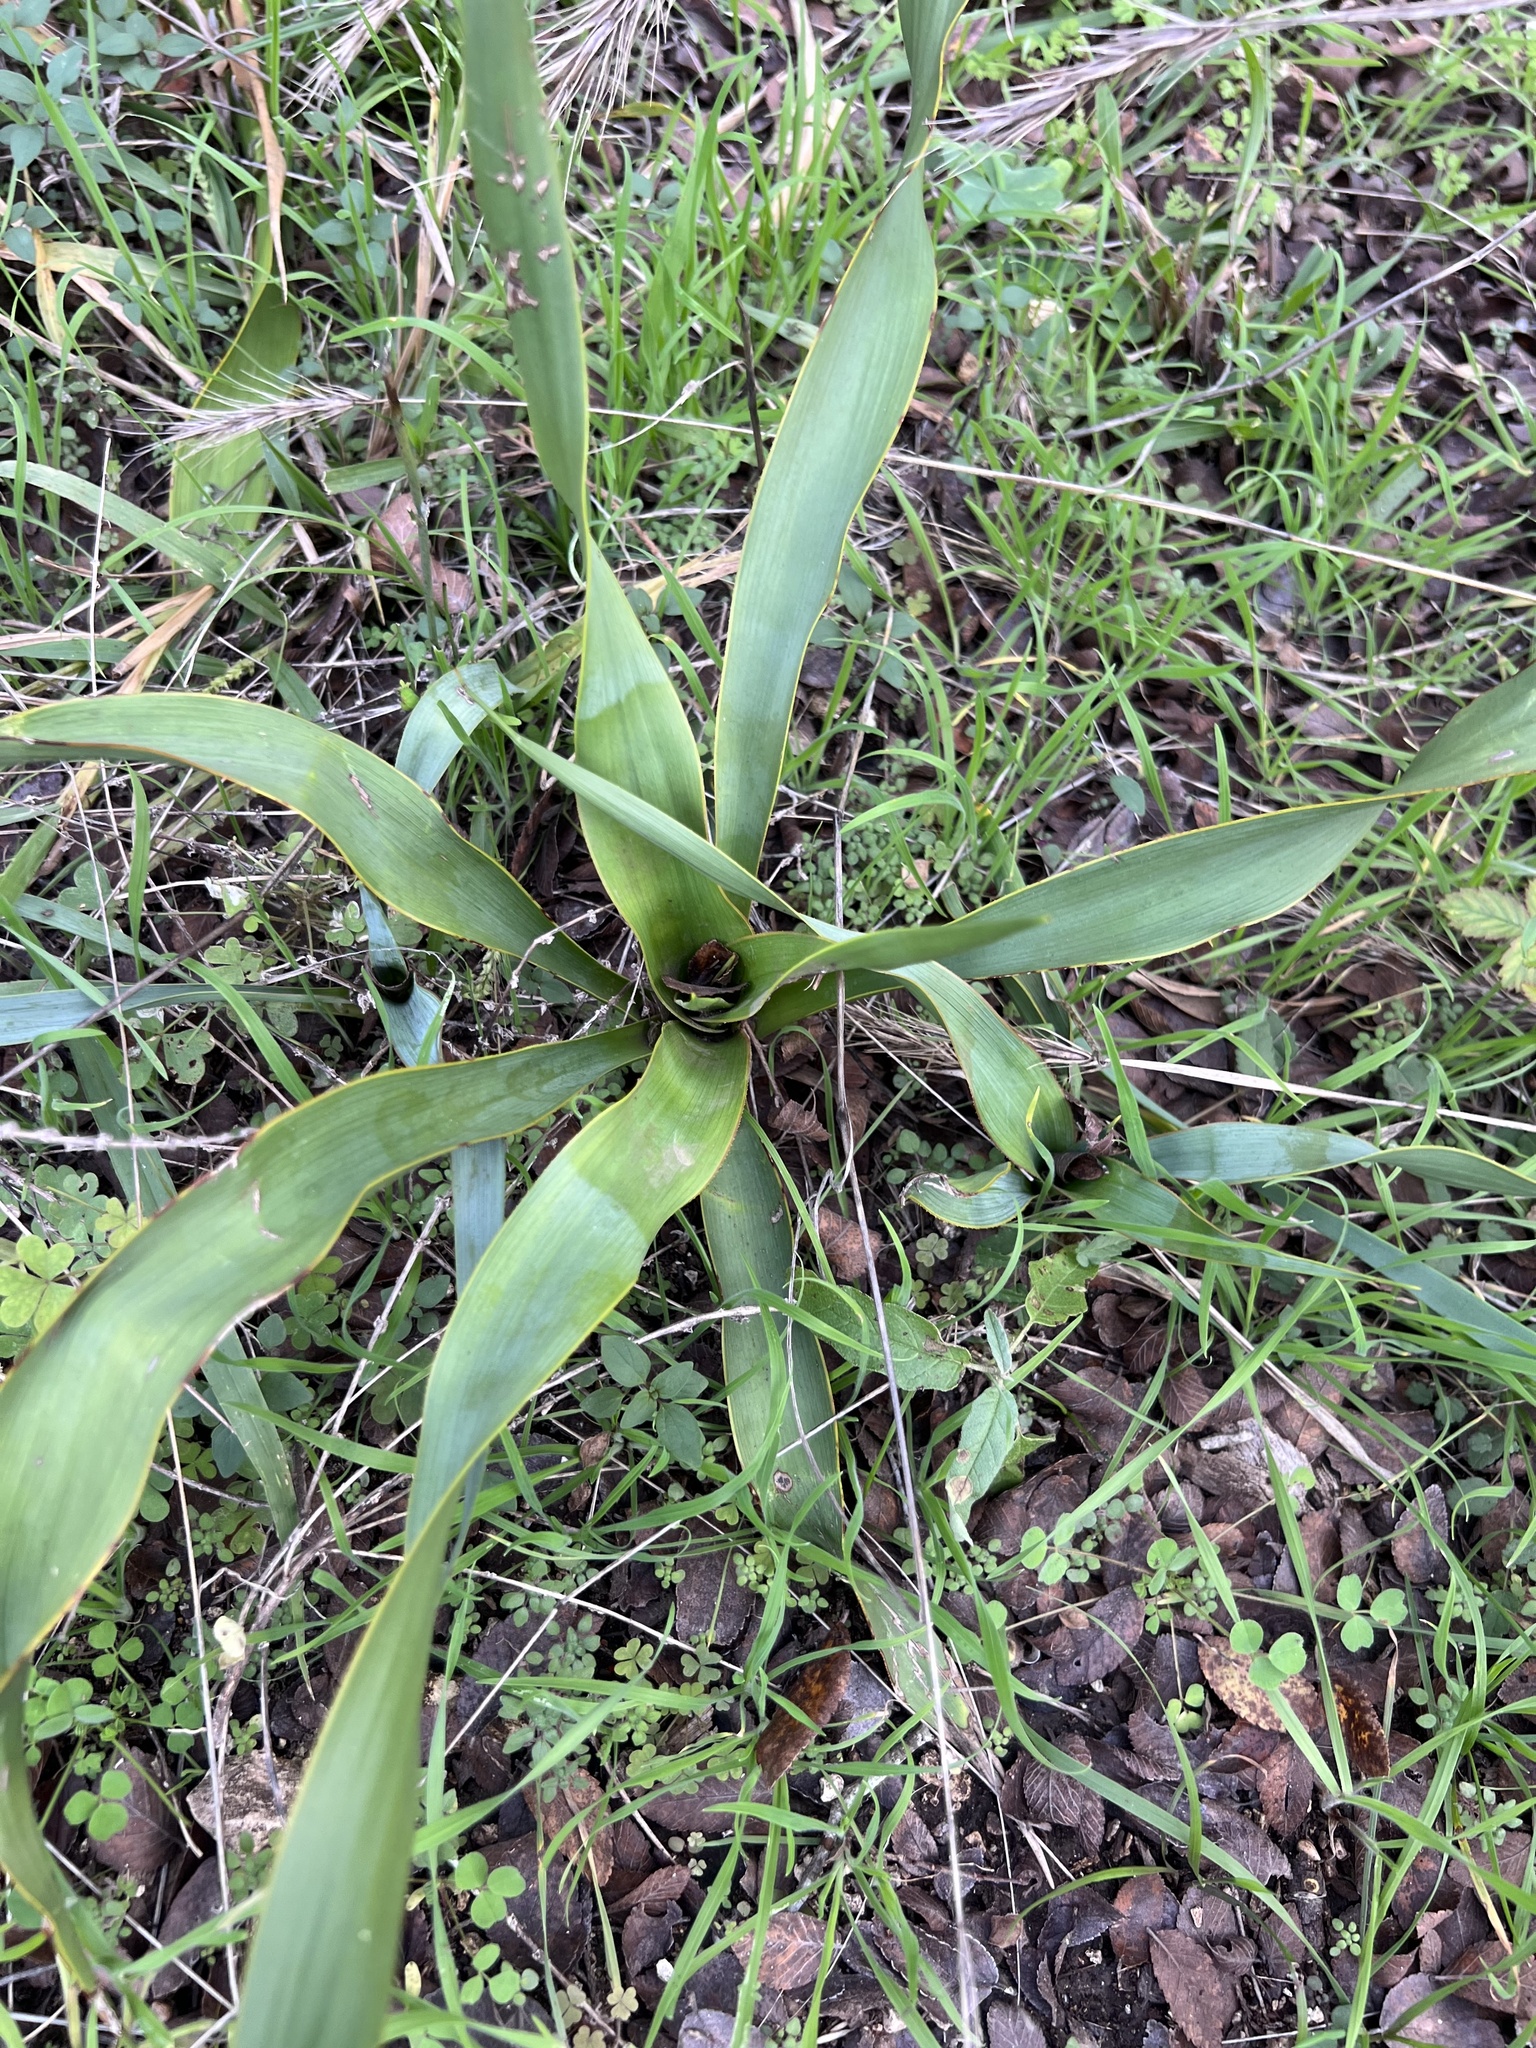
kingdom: Plantae
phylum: Tracheophyta
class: Liliopsida
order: Asparagales
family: Asparagaceae
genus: Yucca
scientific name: Yucca rupicola
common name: Twisted-leaf spanish-dagger
